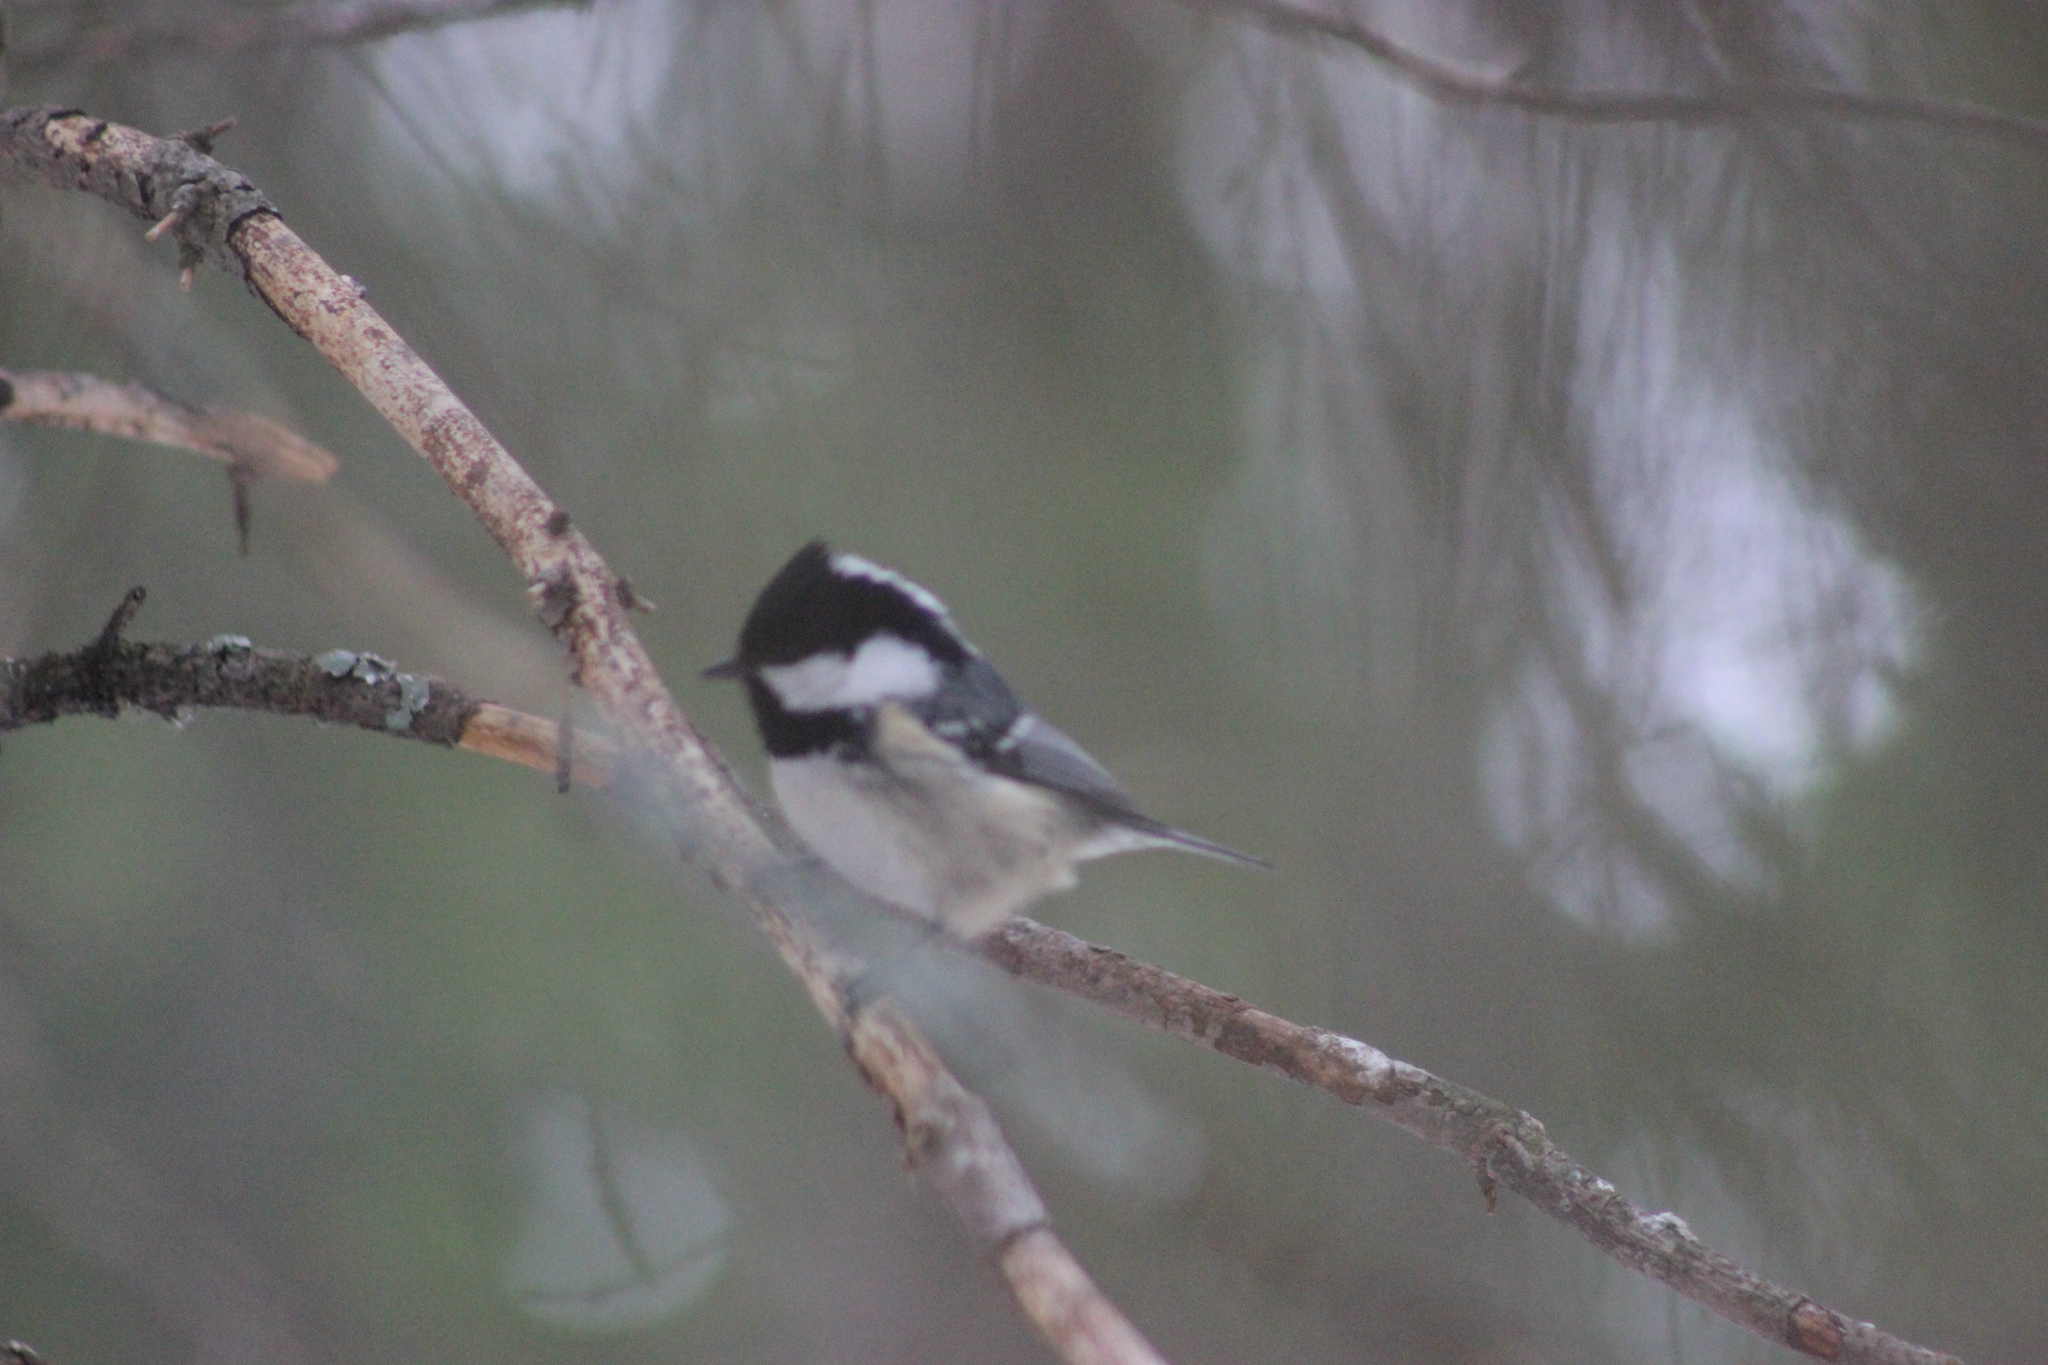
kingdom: Animalia
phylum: Chordata
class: Aves
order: Passeriformes
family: Paridae
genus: Periparus
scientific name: Periparus ater
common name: Coal tit
